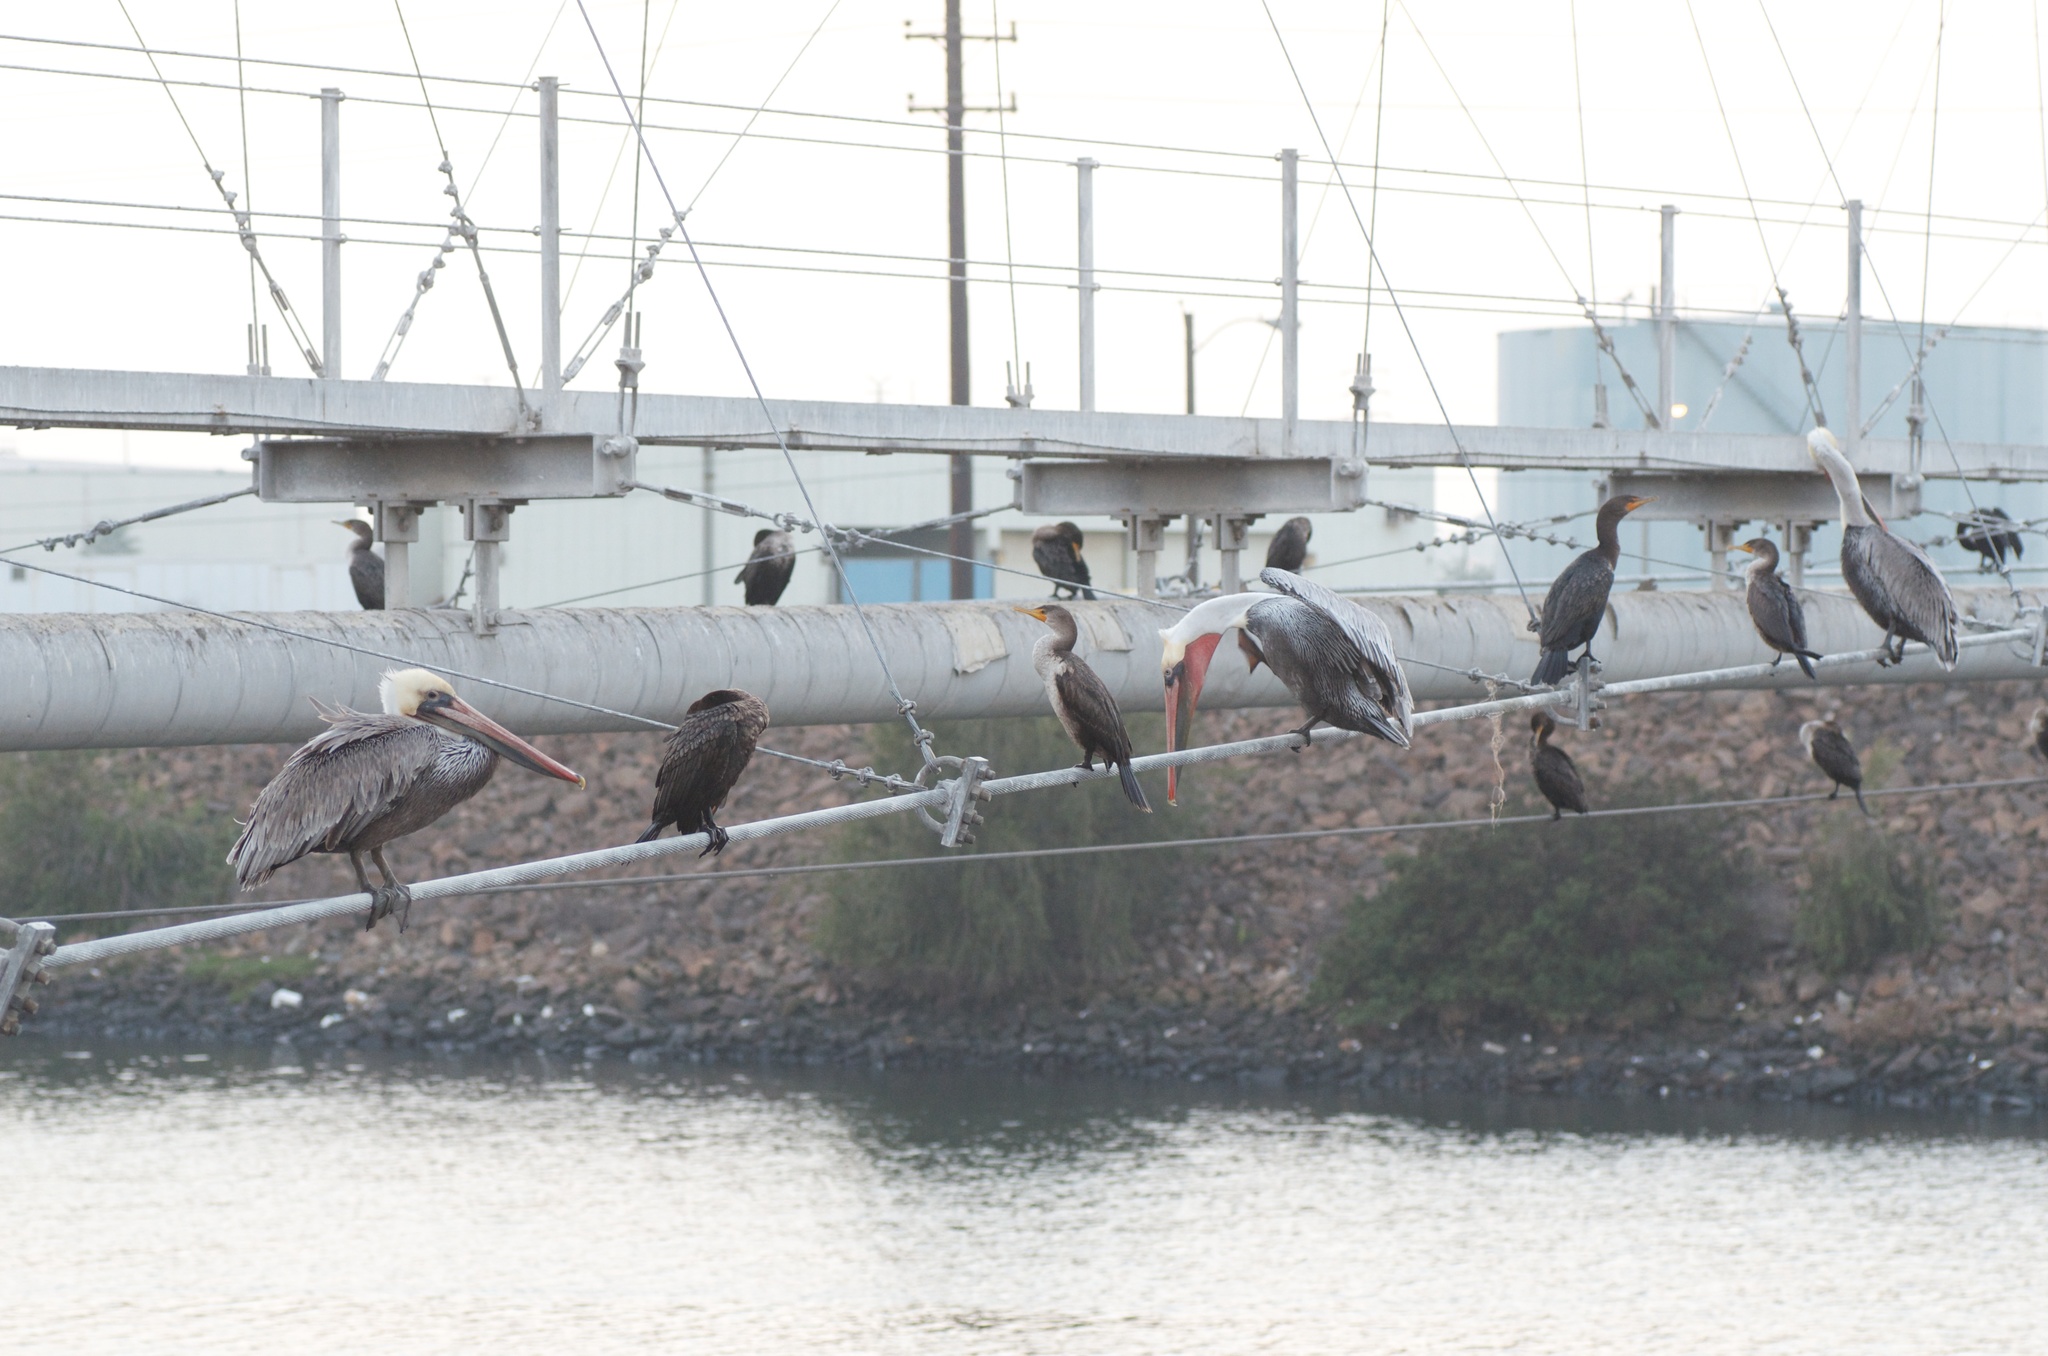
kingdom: Animalia
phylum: Chordata
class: Aves
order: Pelecaniformes
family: Pelecanidae
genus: Pelecanus
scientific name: Pelecanus occidentalis
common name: Brown pelican
